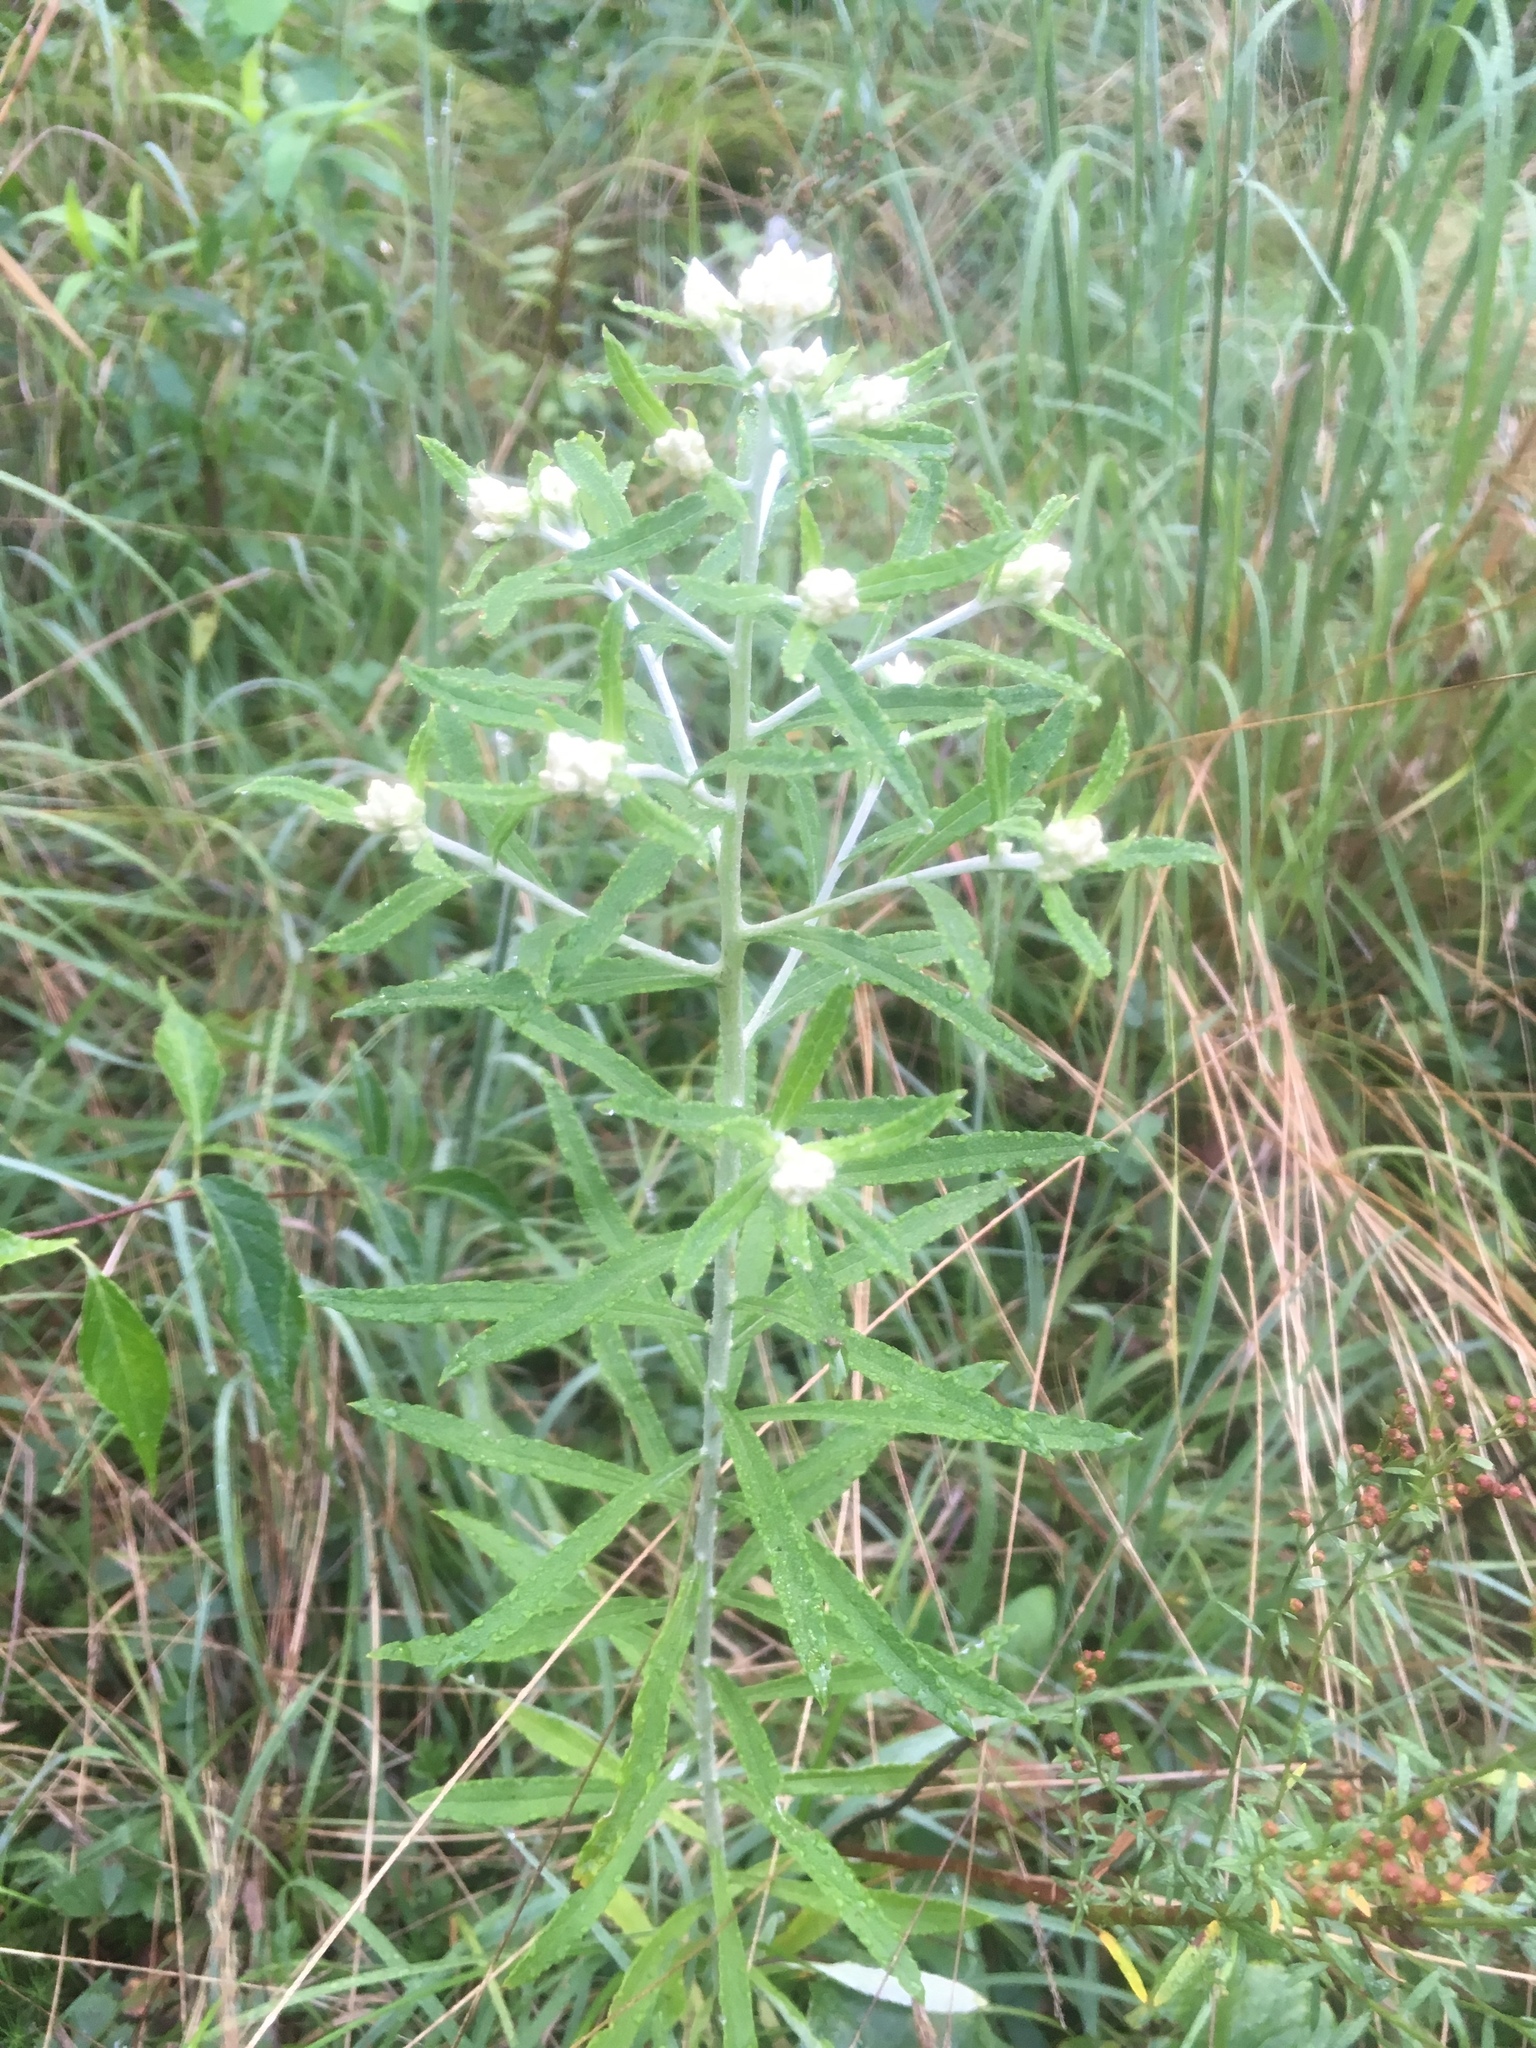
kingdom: Plantae
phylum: Tracheophyta
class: Magnoliopsida
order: Asterales
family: Asteraceae
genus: Pseudognaphalium
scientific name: Pseudognaphalium obtusifolium
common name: Eastern rabbit-tobacco
